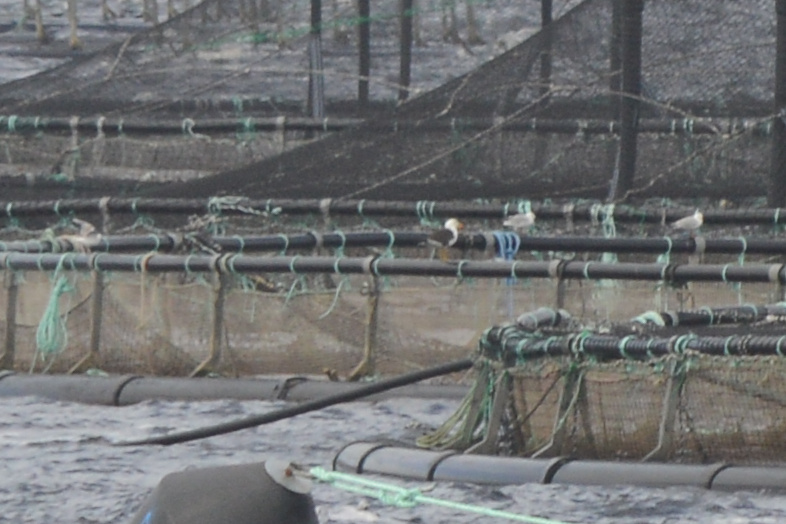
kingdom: Animalia
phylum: Chordata
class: Aves
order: Charadriiformes
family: Laridae
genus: Chroicocephalus
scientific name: Chroicocephalus novaehollandiae
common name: Silver gull
